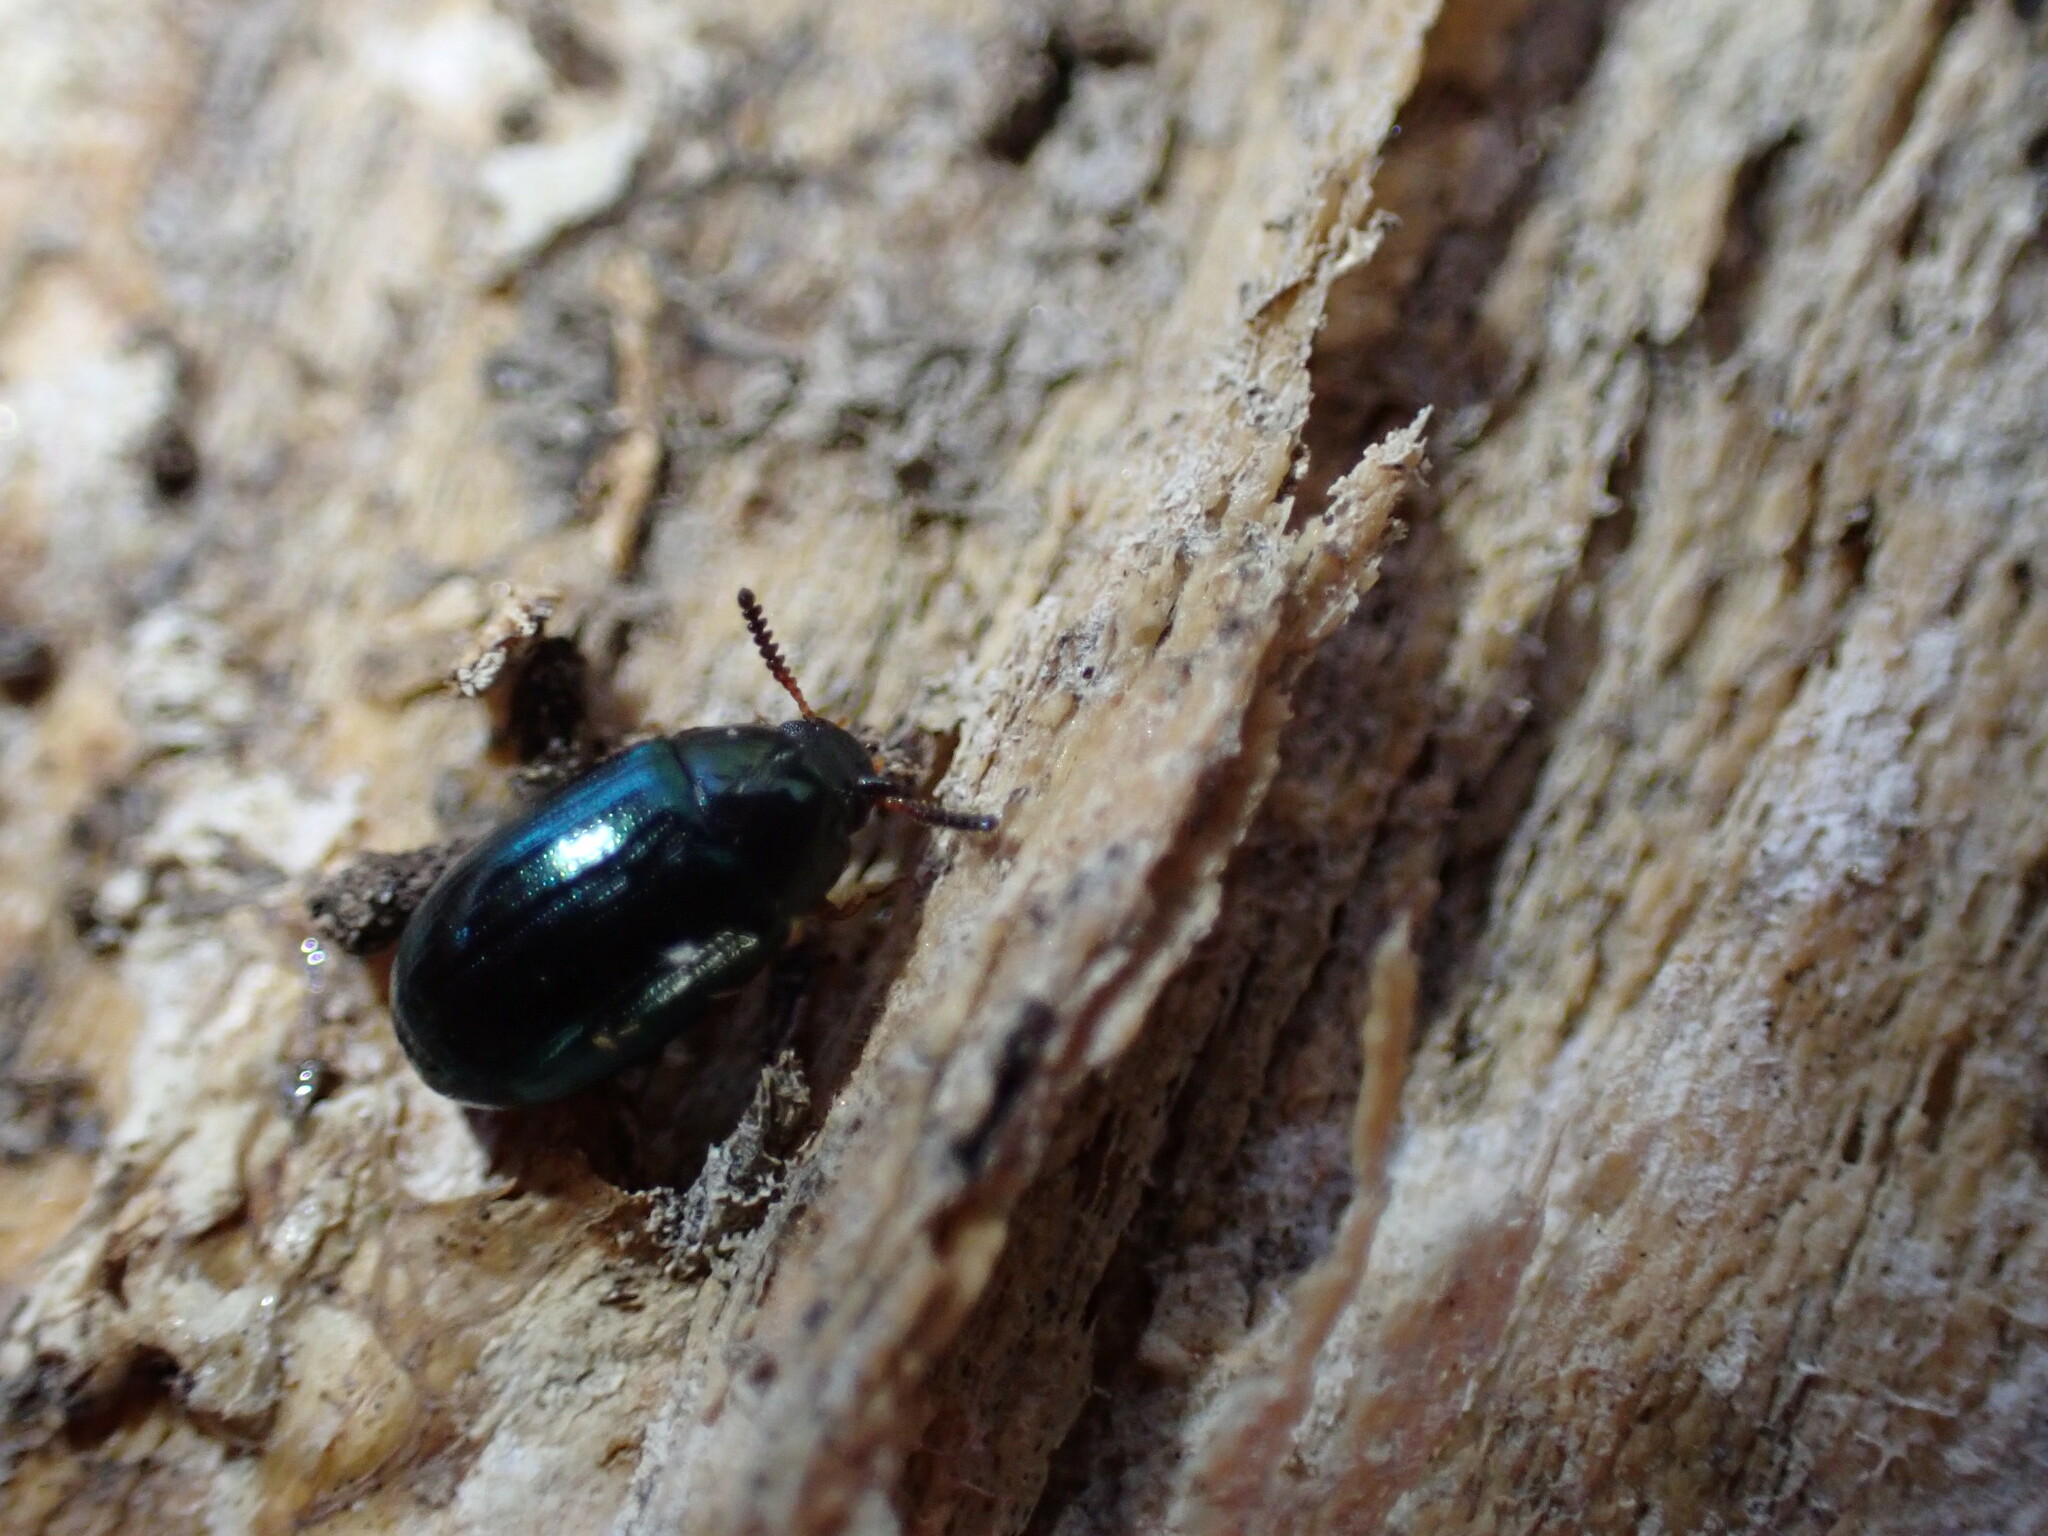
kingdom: Animalia
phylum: Arthropoda
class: Insecta
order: Coleoptera
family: Tenebrionidae
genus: Neomida
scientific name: Neomida bicornis
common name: Two-horned darkling beetle
